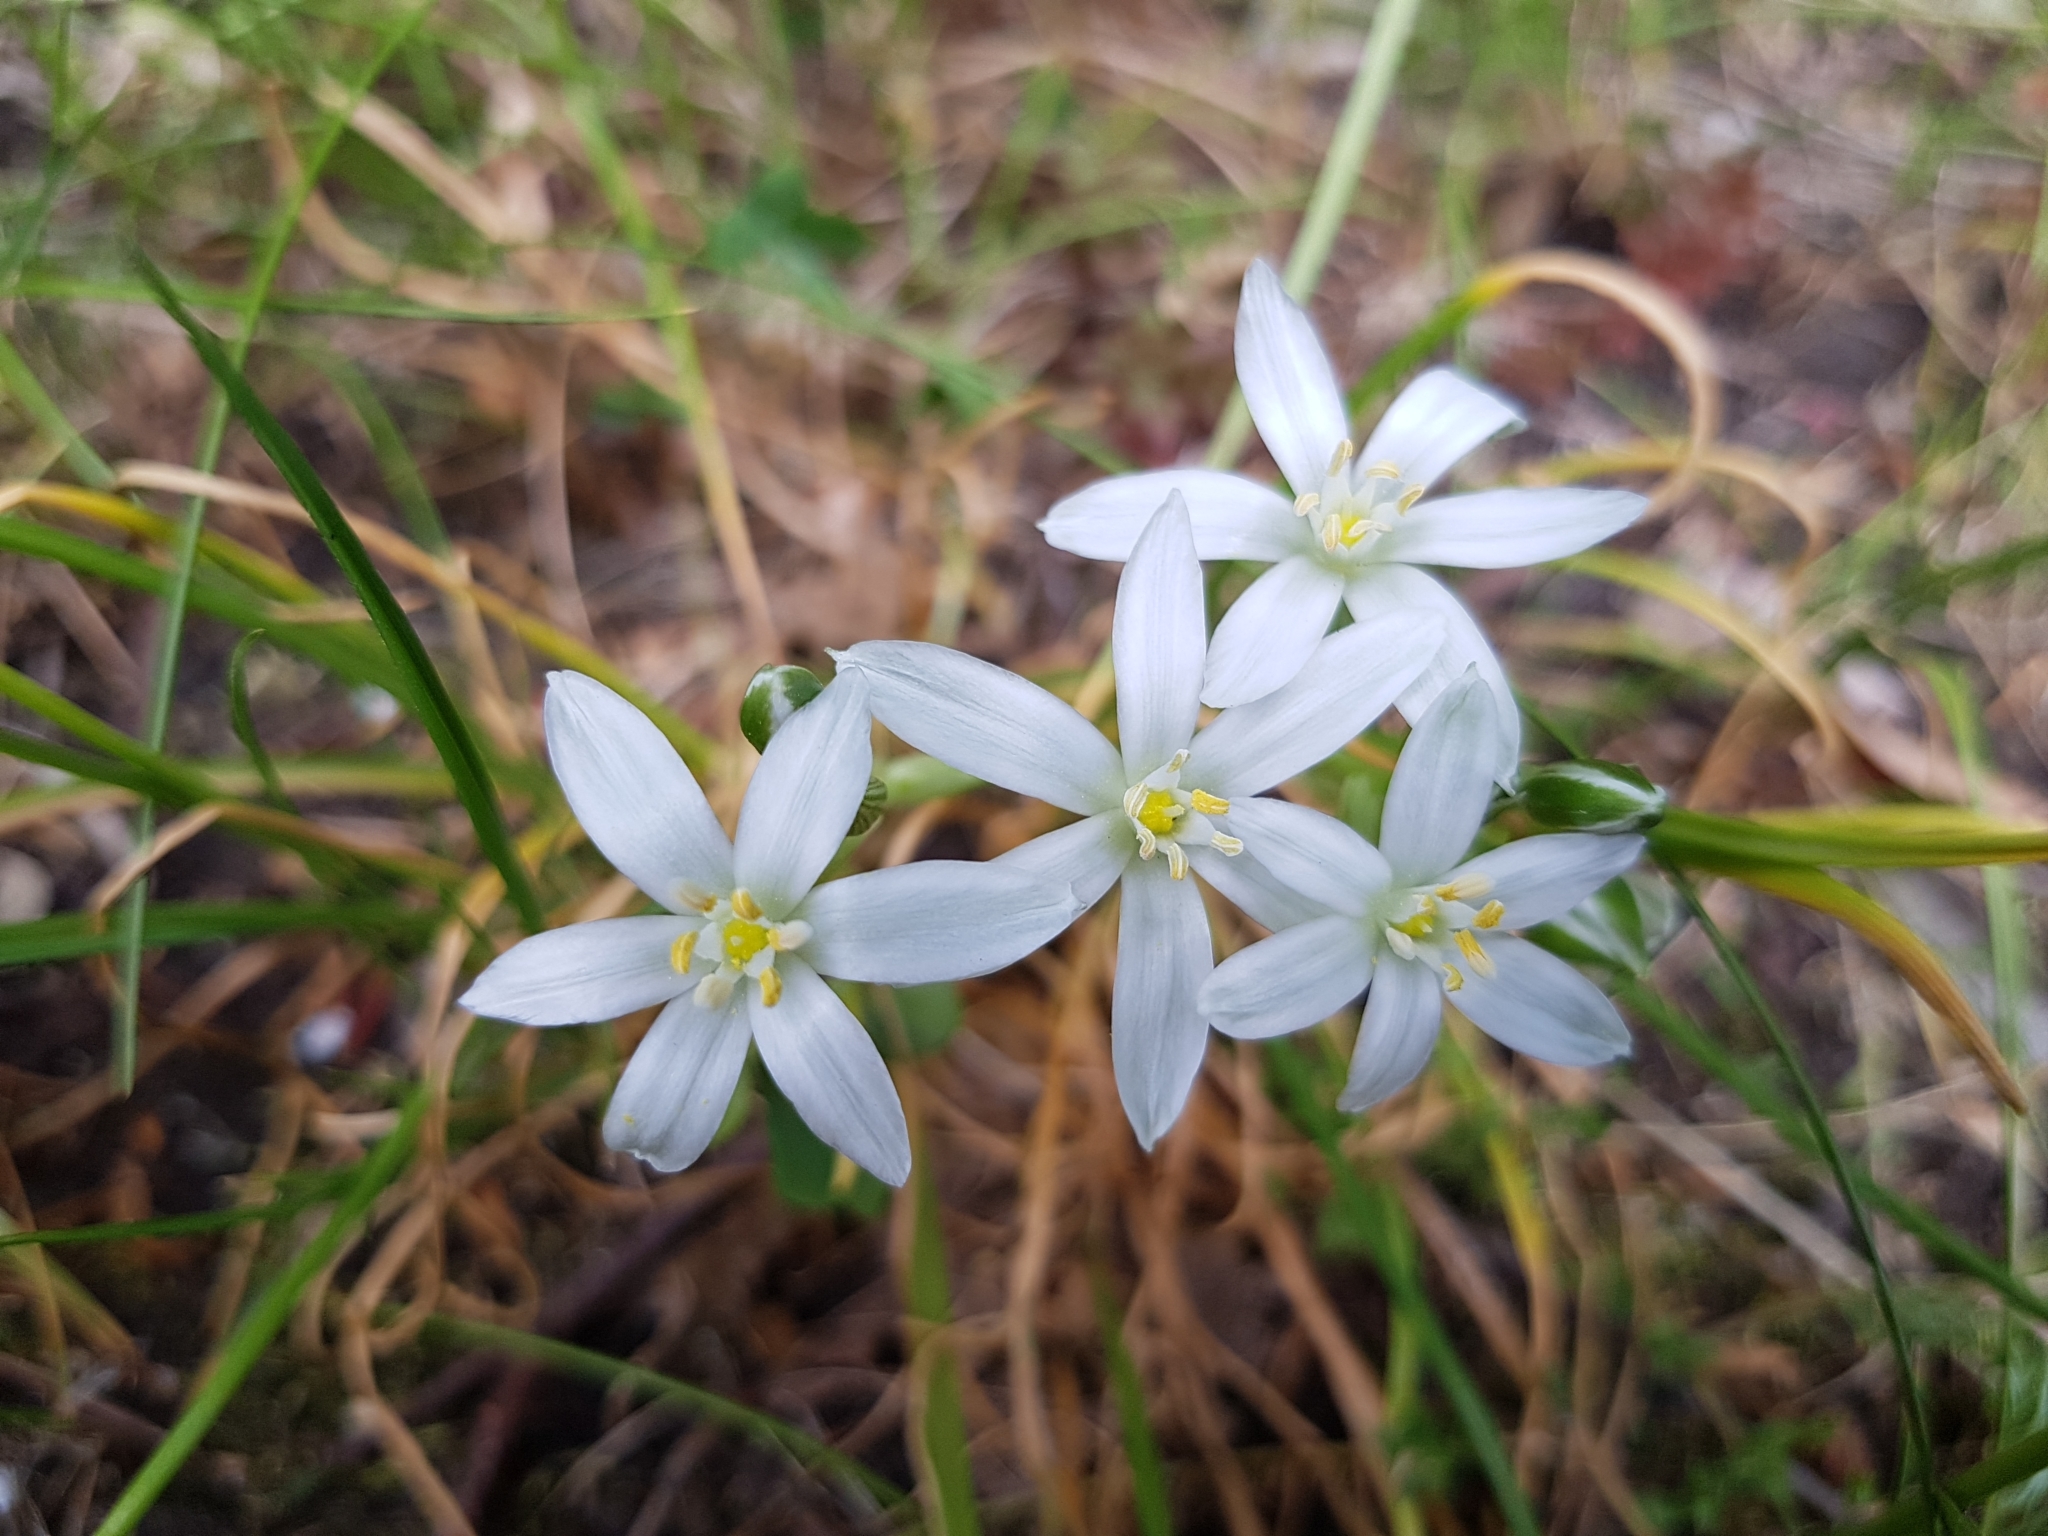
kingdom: Plantae
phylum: Tracheophyta
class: Liliopsida
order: Asparagales
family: Asparagaceae
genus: Ornithogalum
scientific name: Ornithogalum umbellatum
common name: Garden star-of-bethlehem
